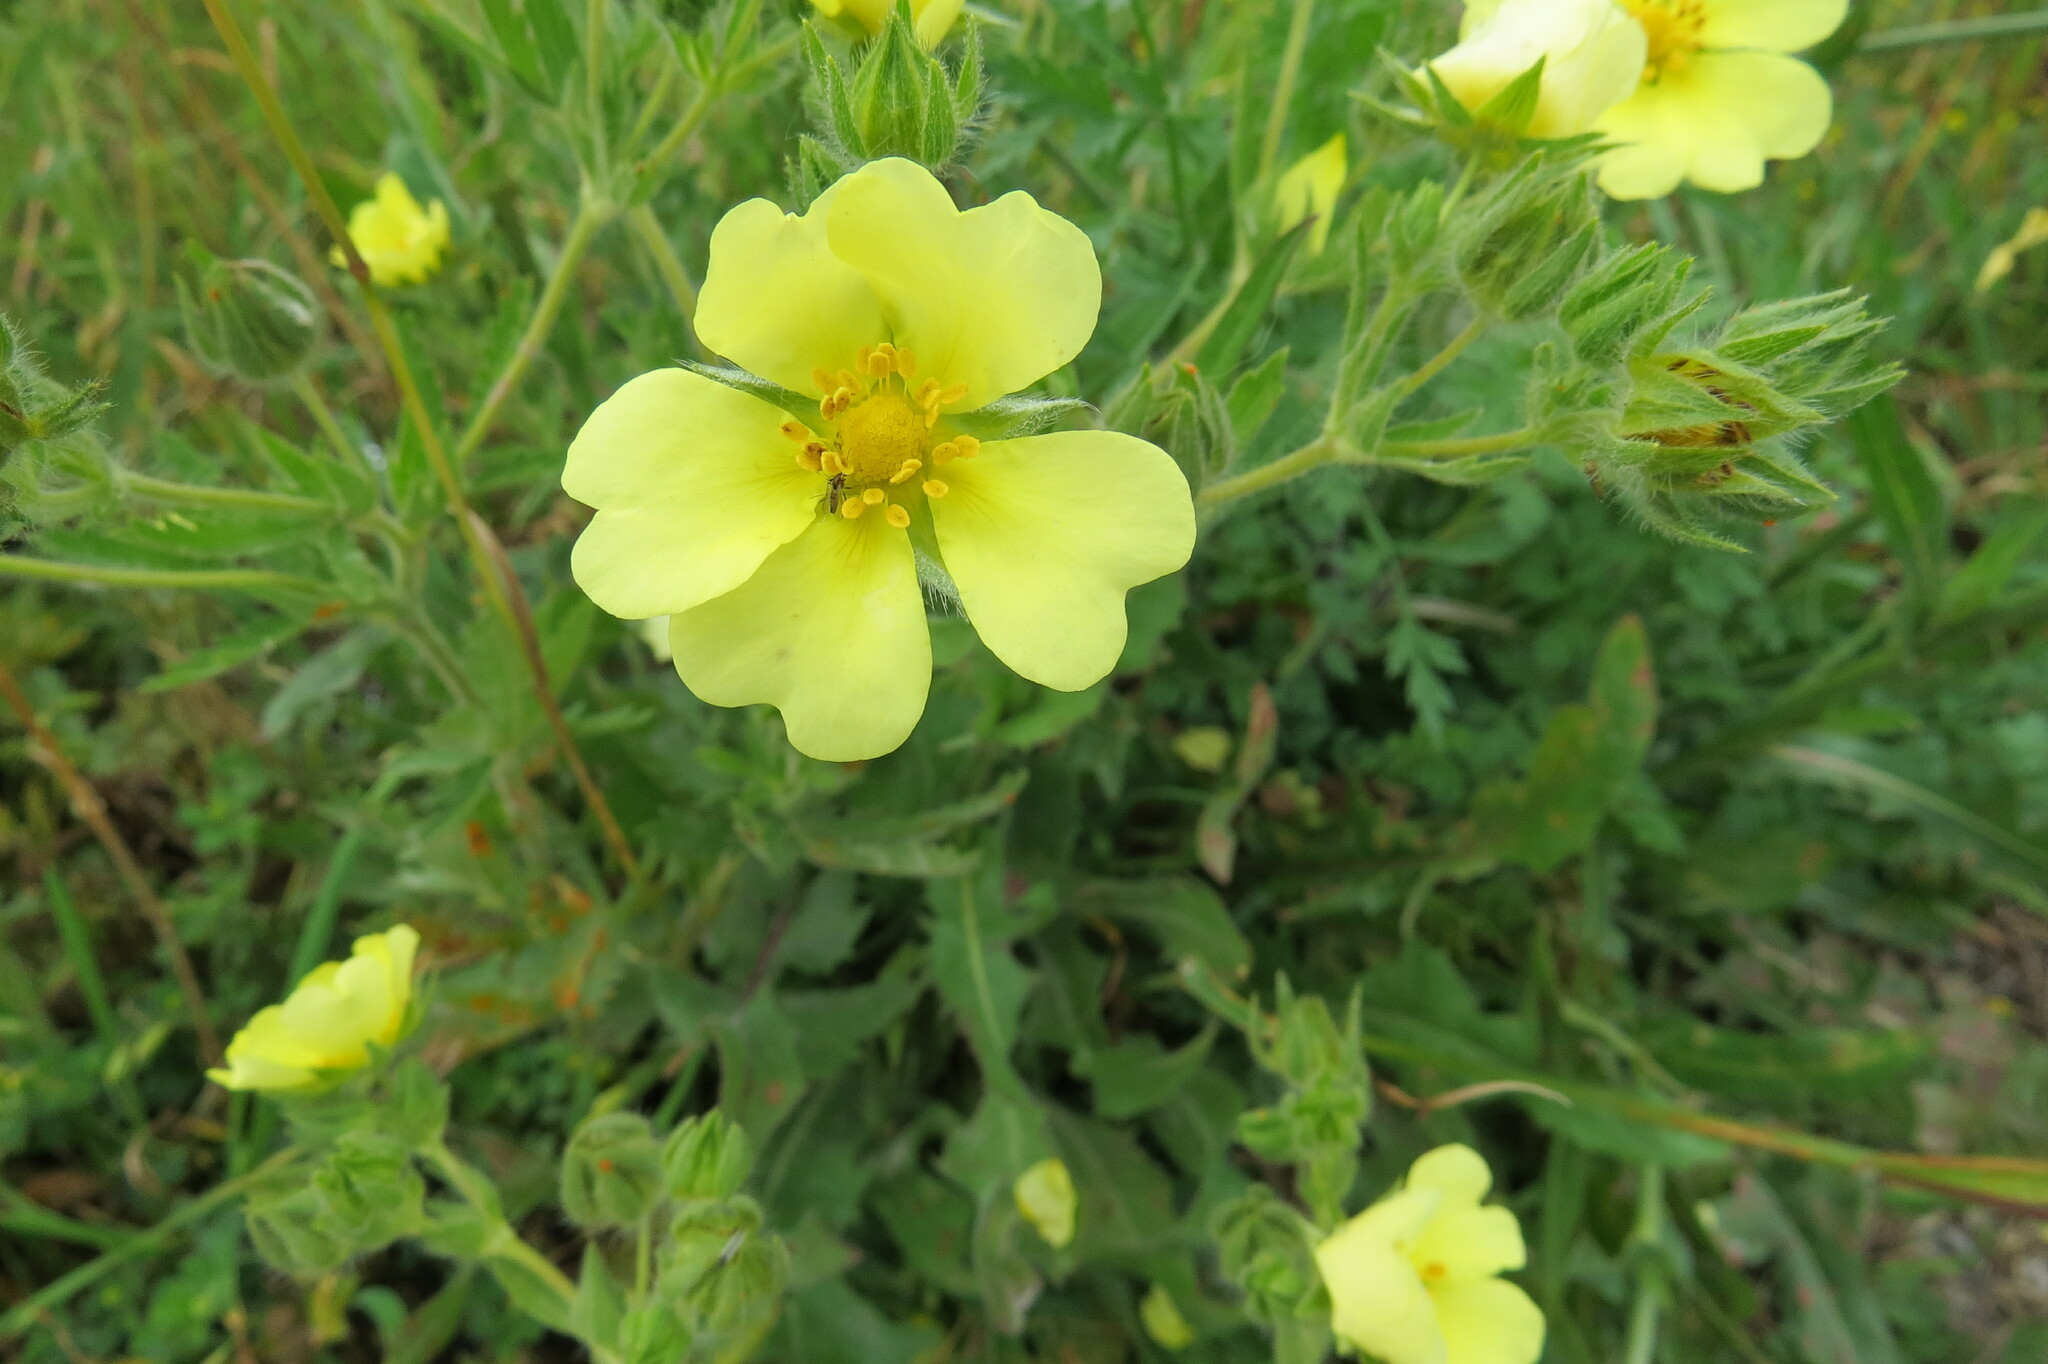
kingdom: Plantae
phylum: Tracheophyta
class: Magnoliopsida
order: Rosales
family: Rosaceae
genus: Potentilla
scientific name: Potentilla recta
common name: Sulphur cinquefoil
